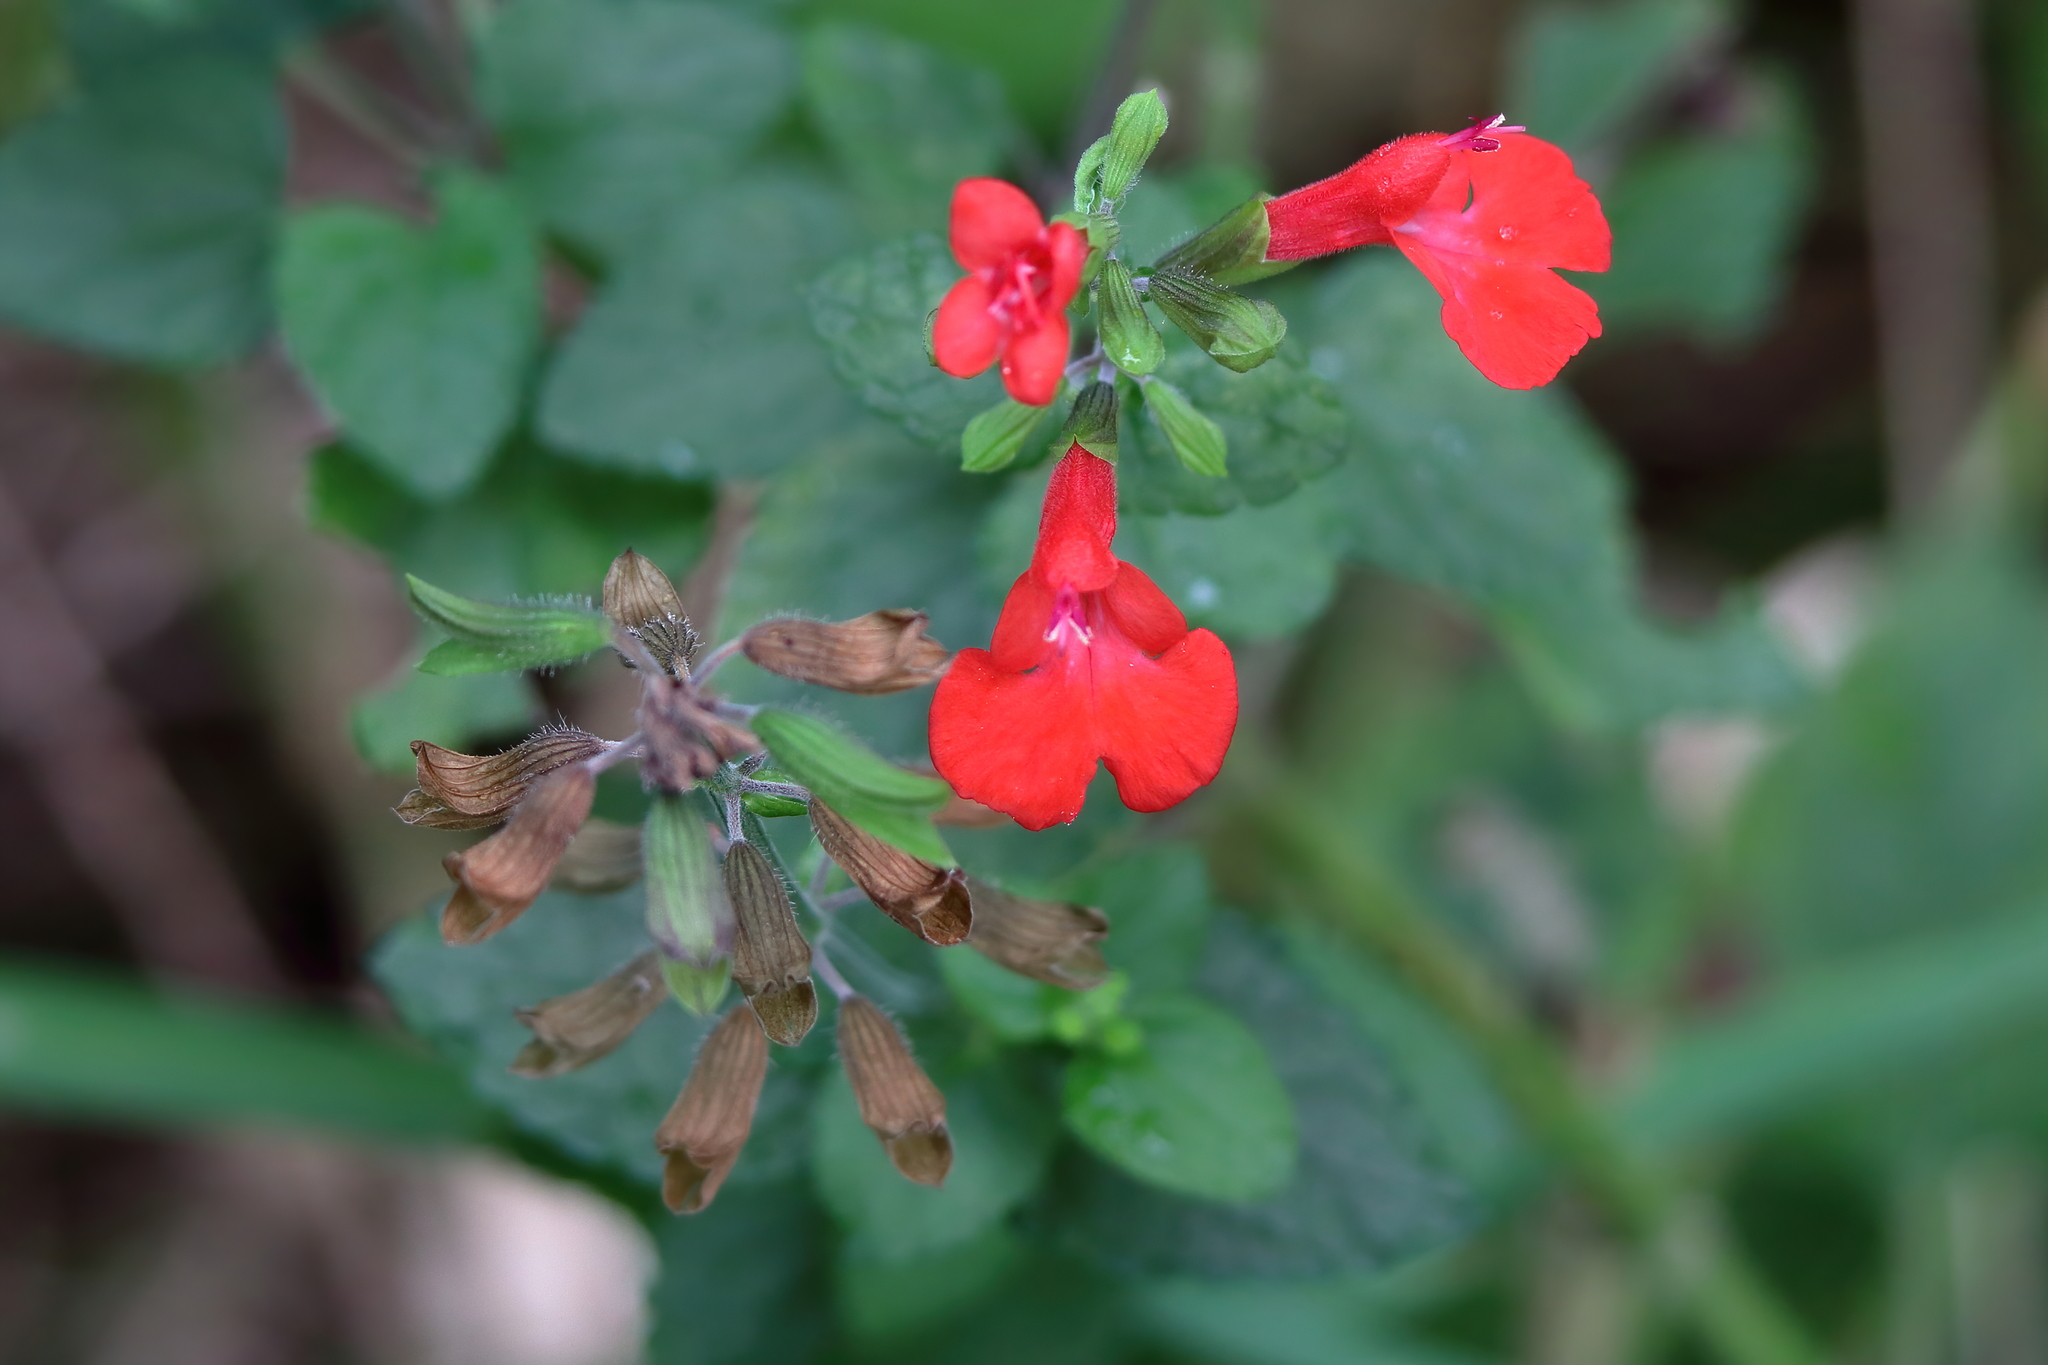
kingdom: Plantae
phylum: Tracheophyta
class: Magnoliopsida
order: Lamiales
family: Lamiaceae
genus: Salvia
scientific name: Salvia coccinea
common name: Blood sage
